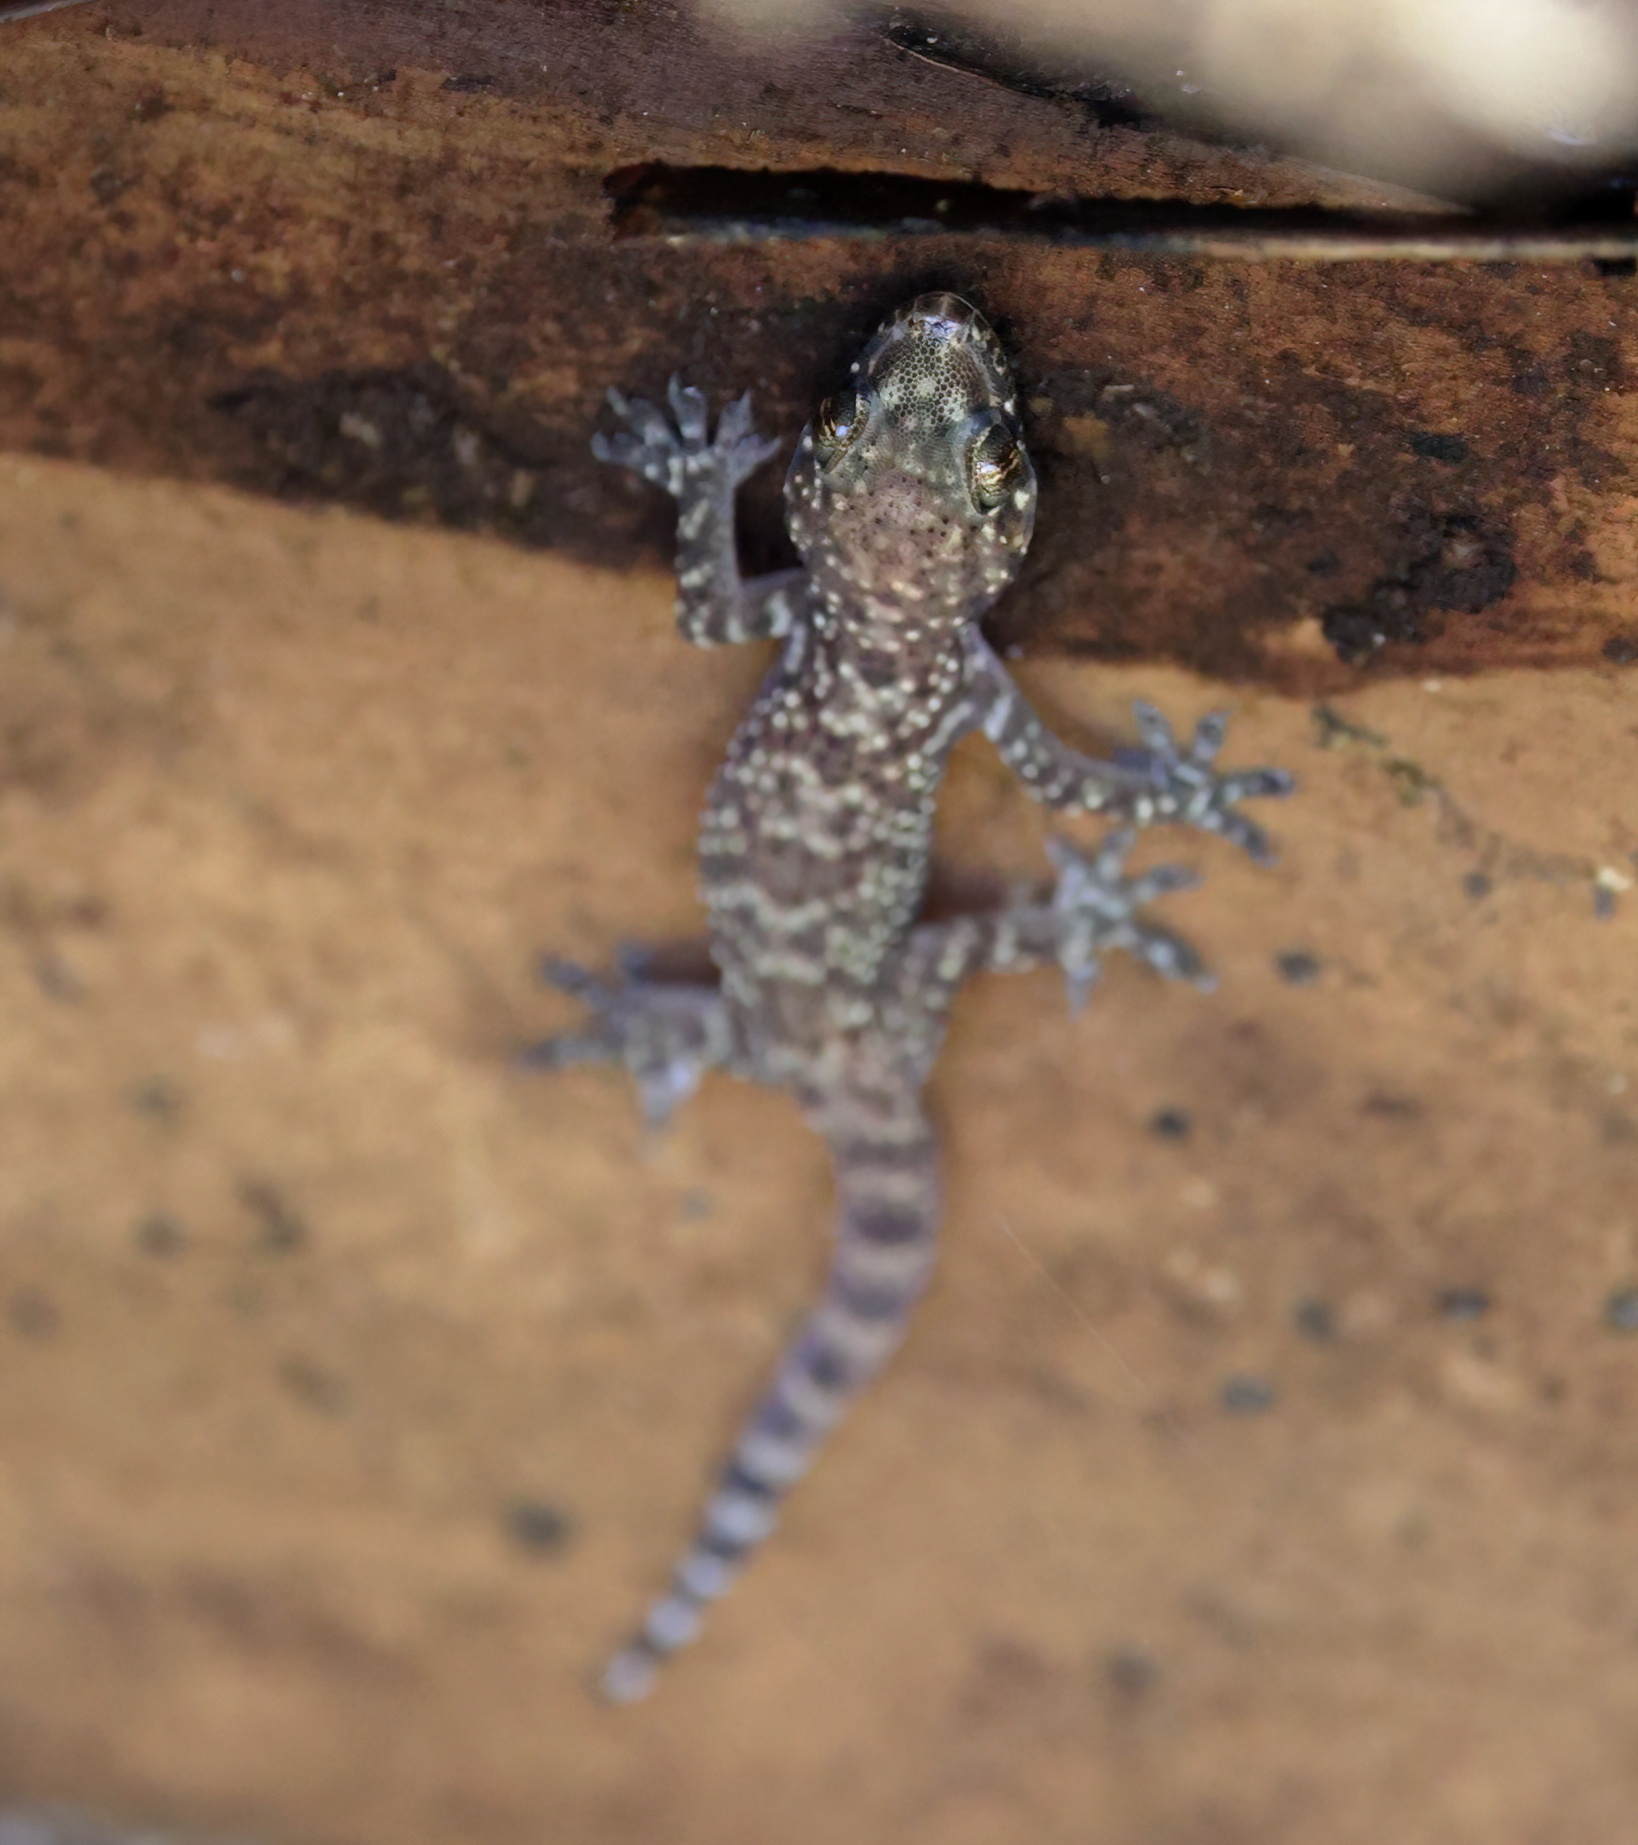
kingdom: Animalia
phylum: Chordata
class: Squamata
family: Gekkonidae
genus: Hemidactylus
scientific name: Hemidactylus turcicus
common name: Turkish gecko
